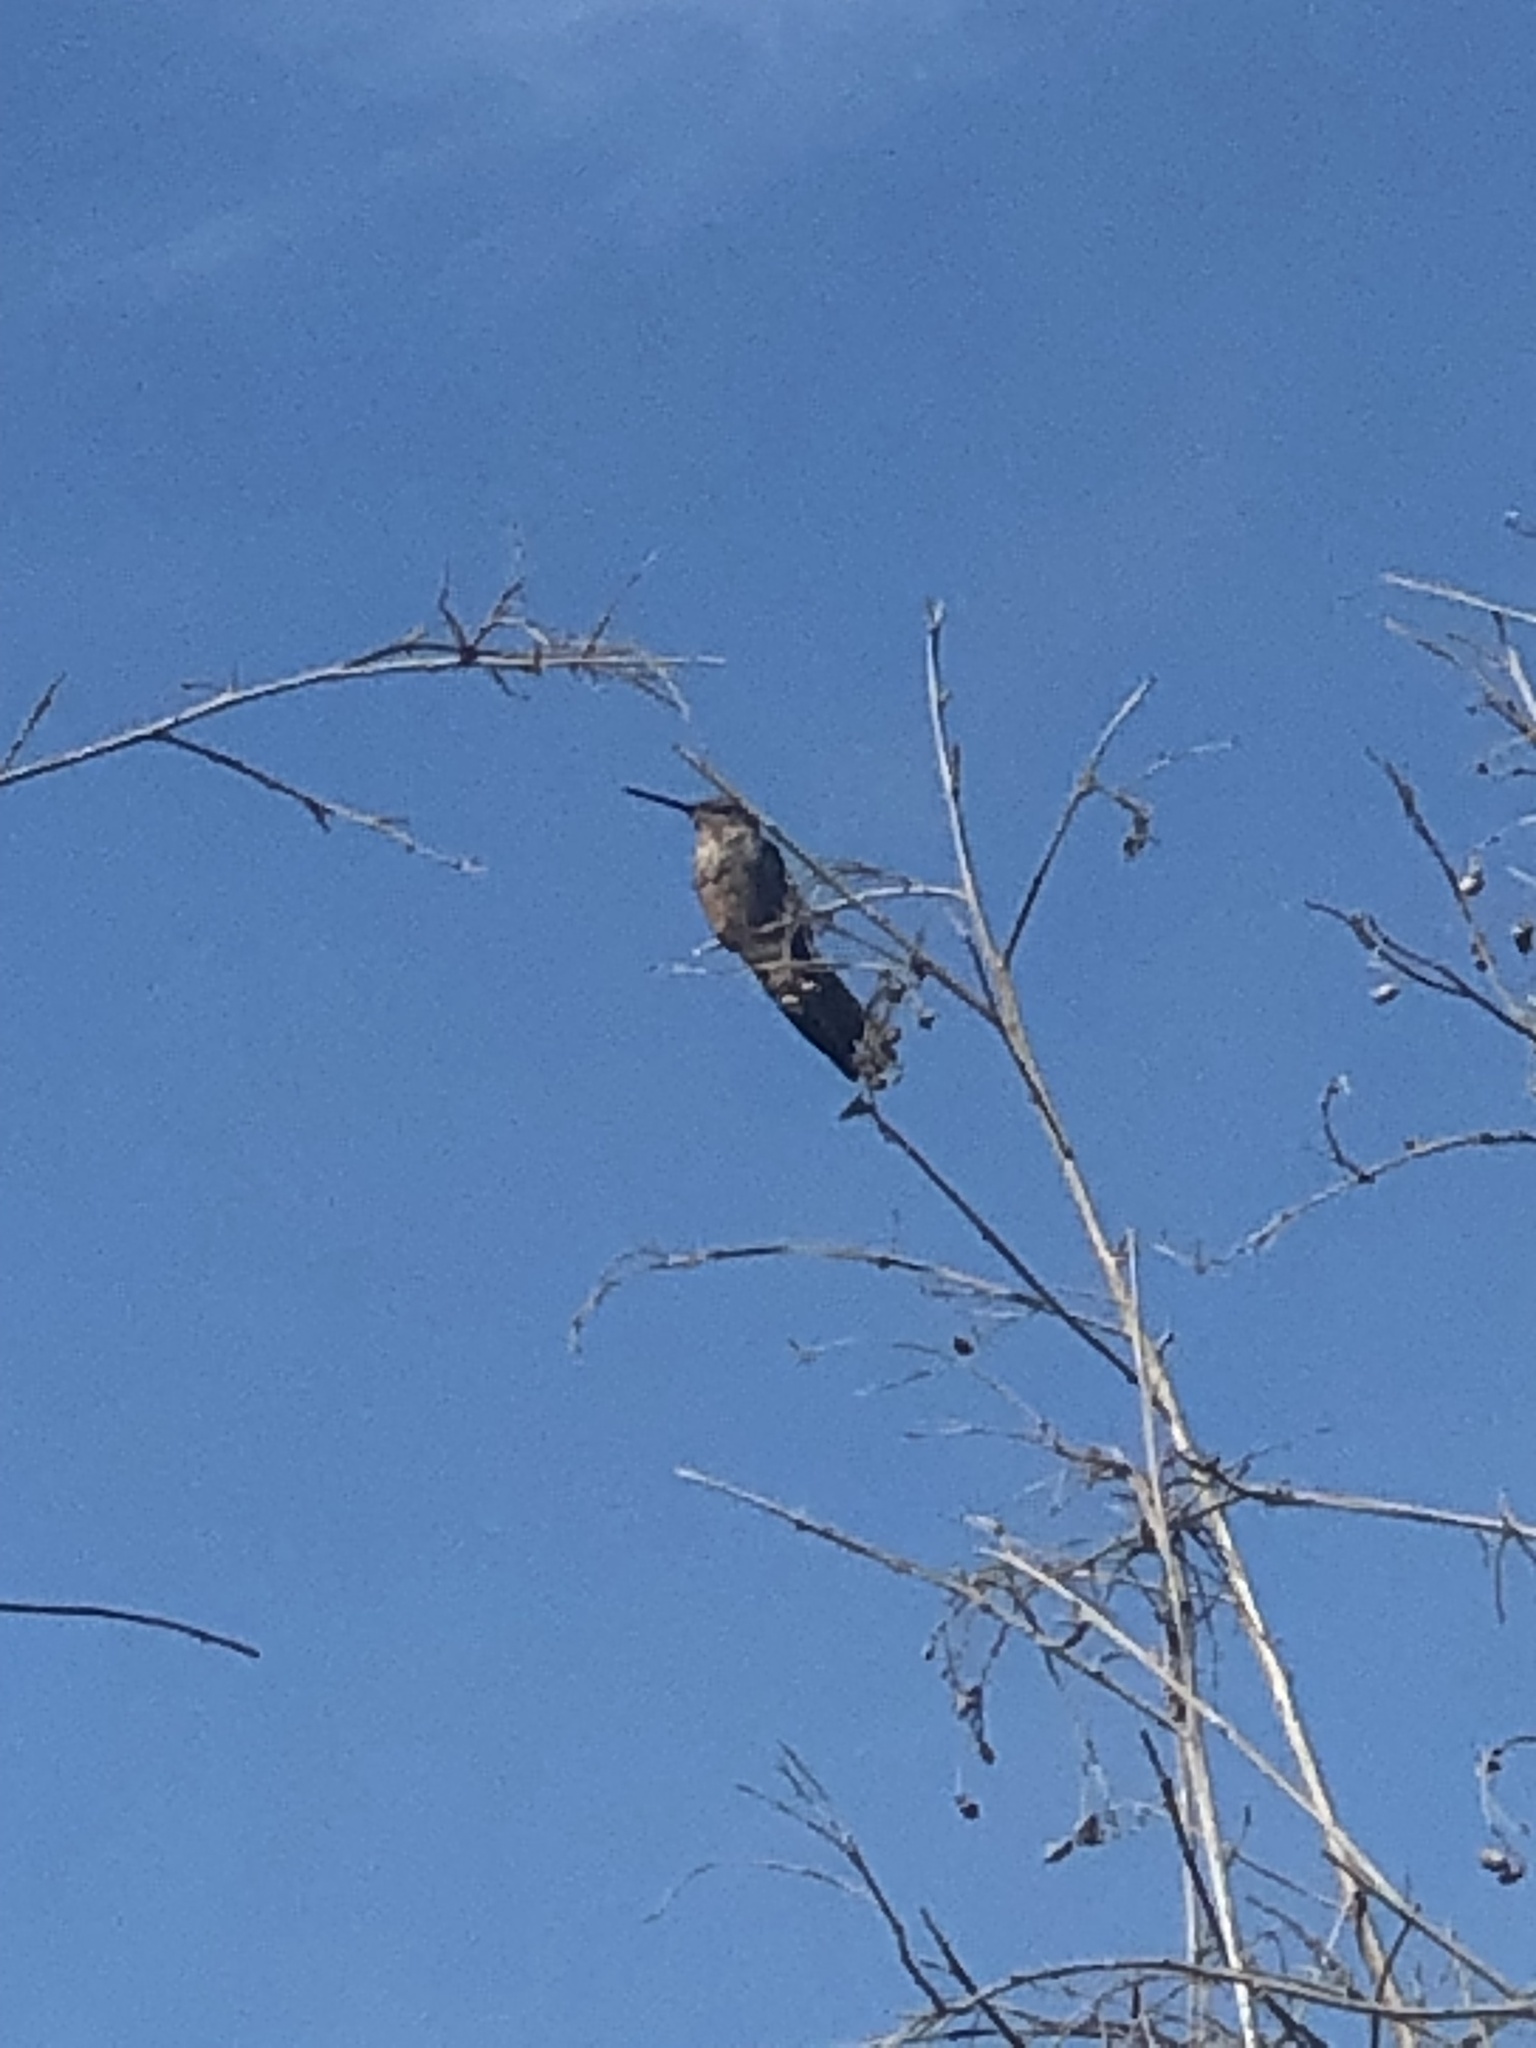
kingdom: Animalia
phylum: Chordata
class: Aves
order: Apodiformes
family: Trochilidae
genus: Patagona
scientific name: Patagona gigas
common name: Giant hummingbird
